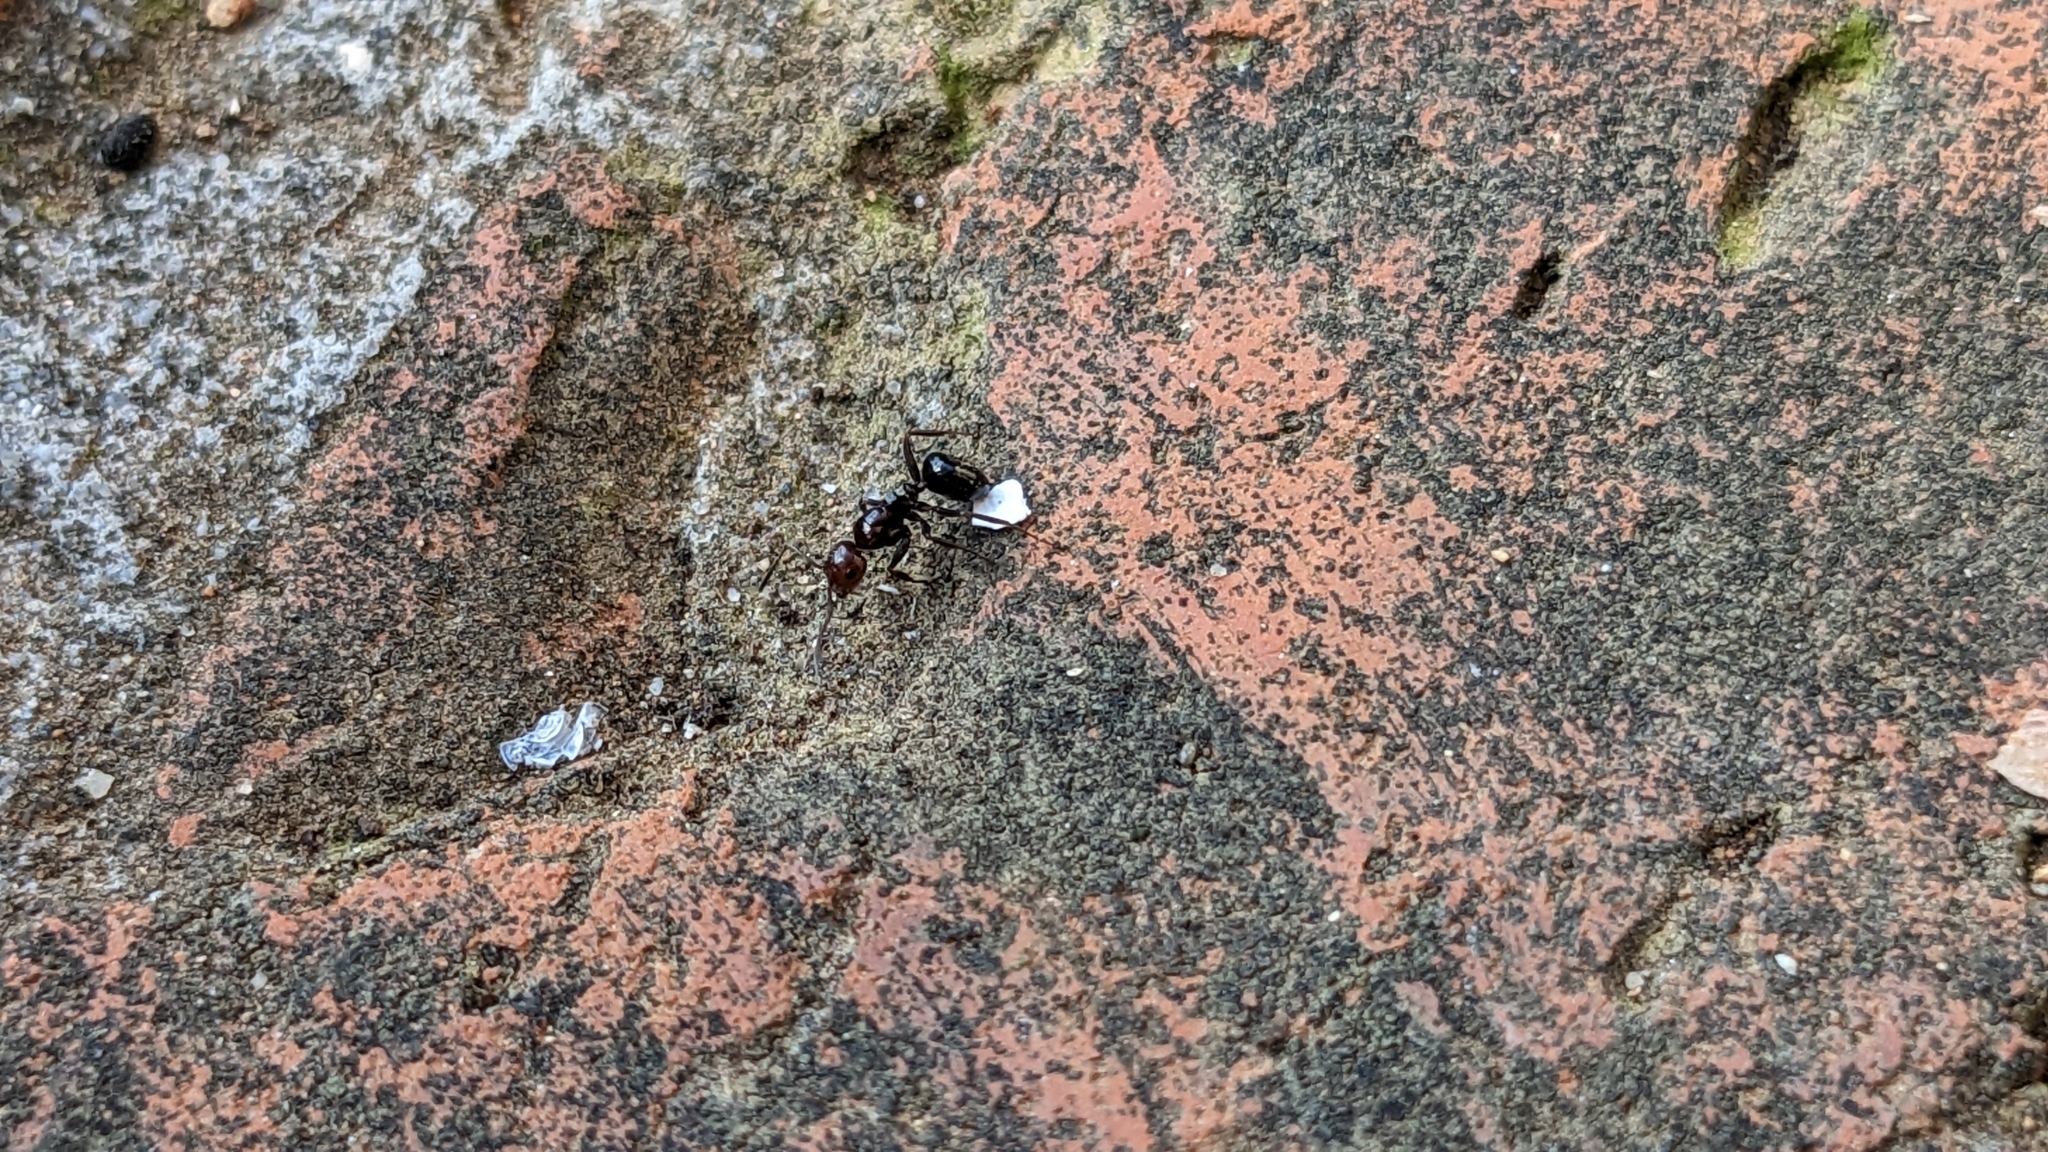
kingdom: Animalia
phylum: Arthropoda
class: Insecta
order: Hymenoptera
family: Formicidae
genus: Camponotus
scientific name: Camponotus lateralis
